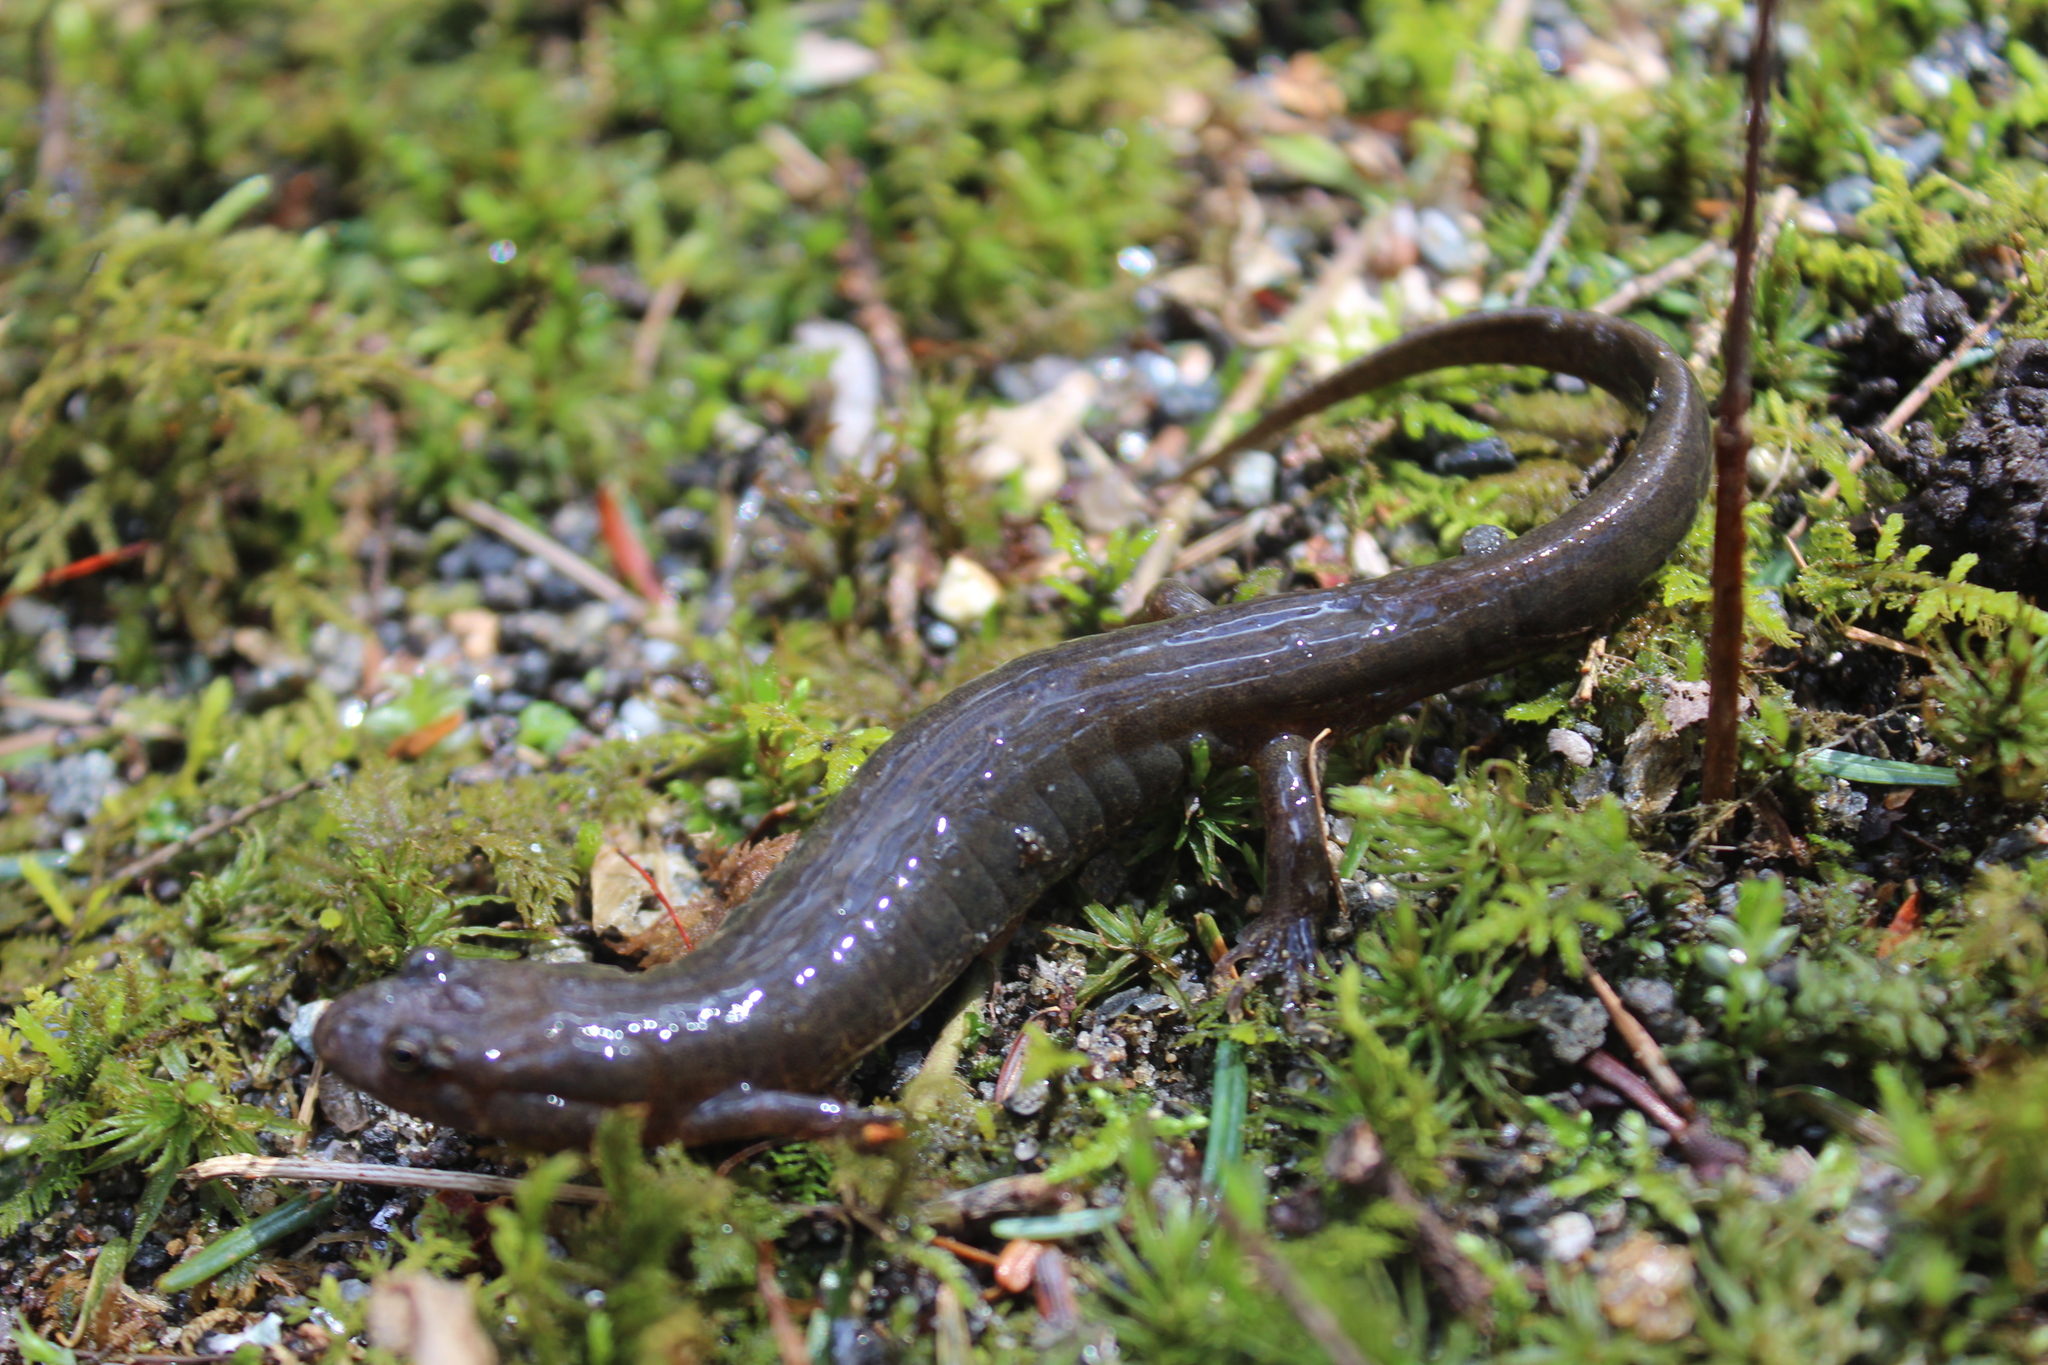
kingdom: Animalia
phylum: Chordata
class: Amphibia
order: Caudata
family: Plethodontidae
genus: Desmognathus
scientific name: Desmognathus fuscus
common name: Northern dusky salamander
